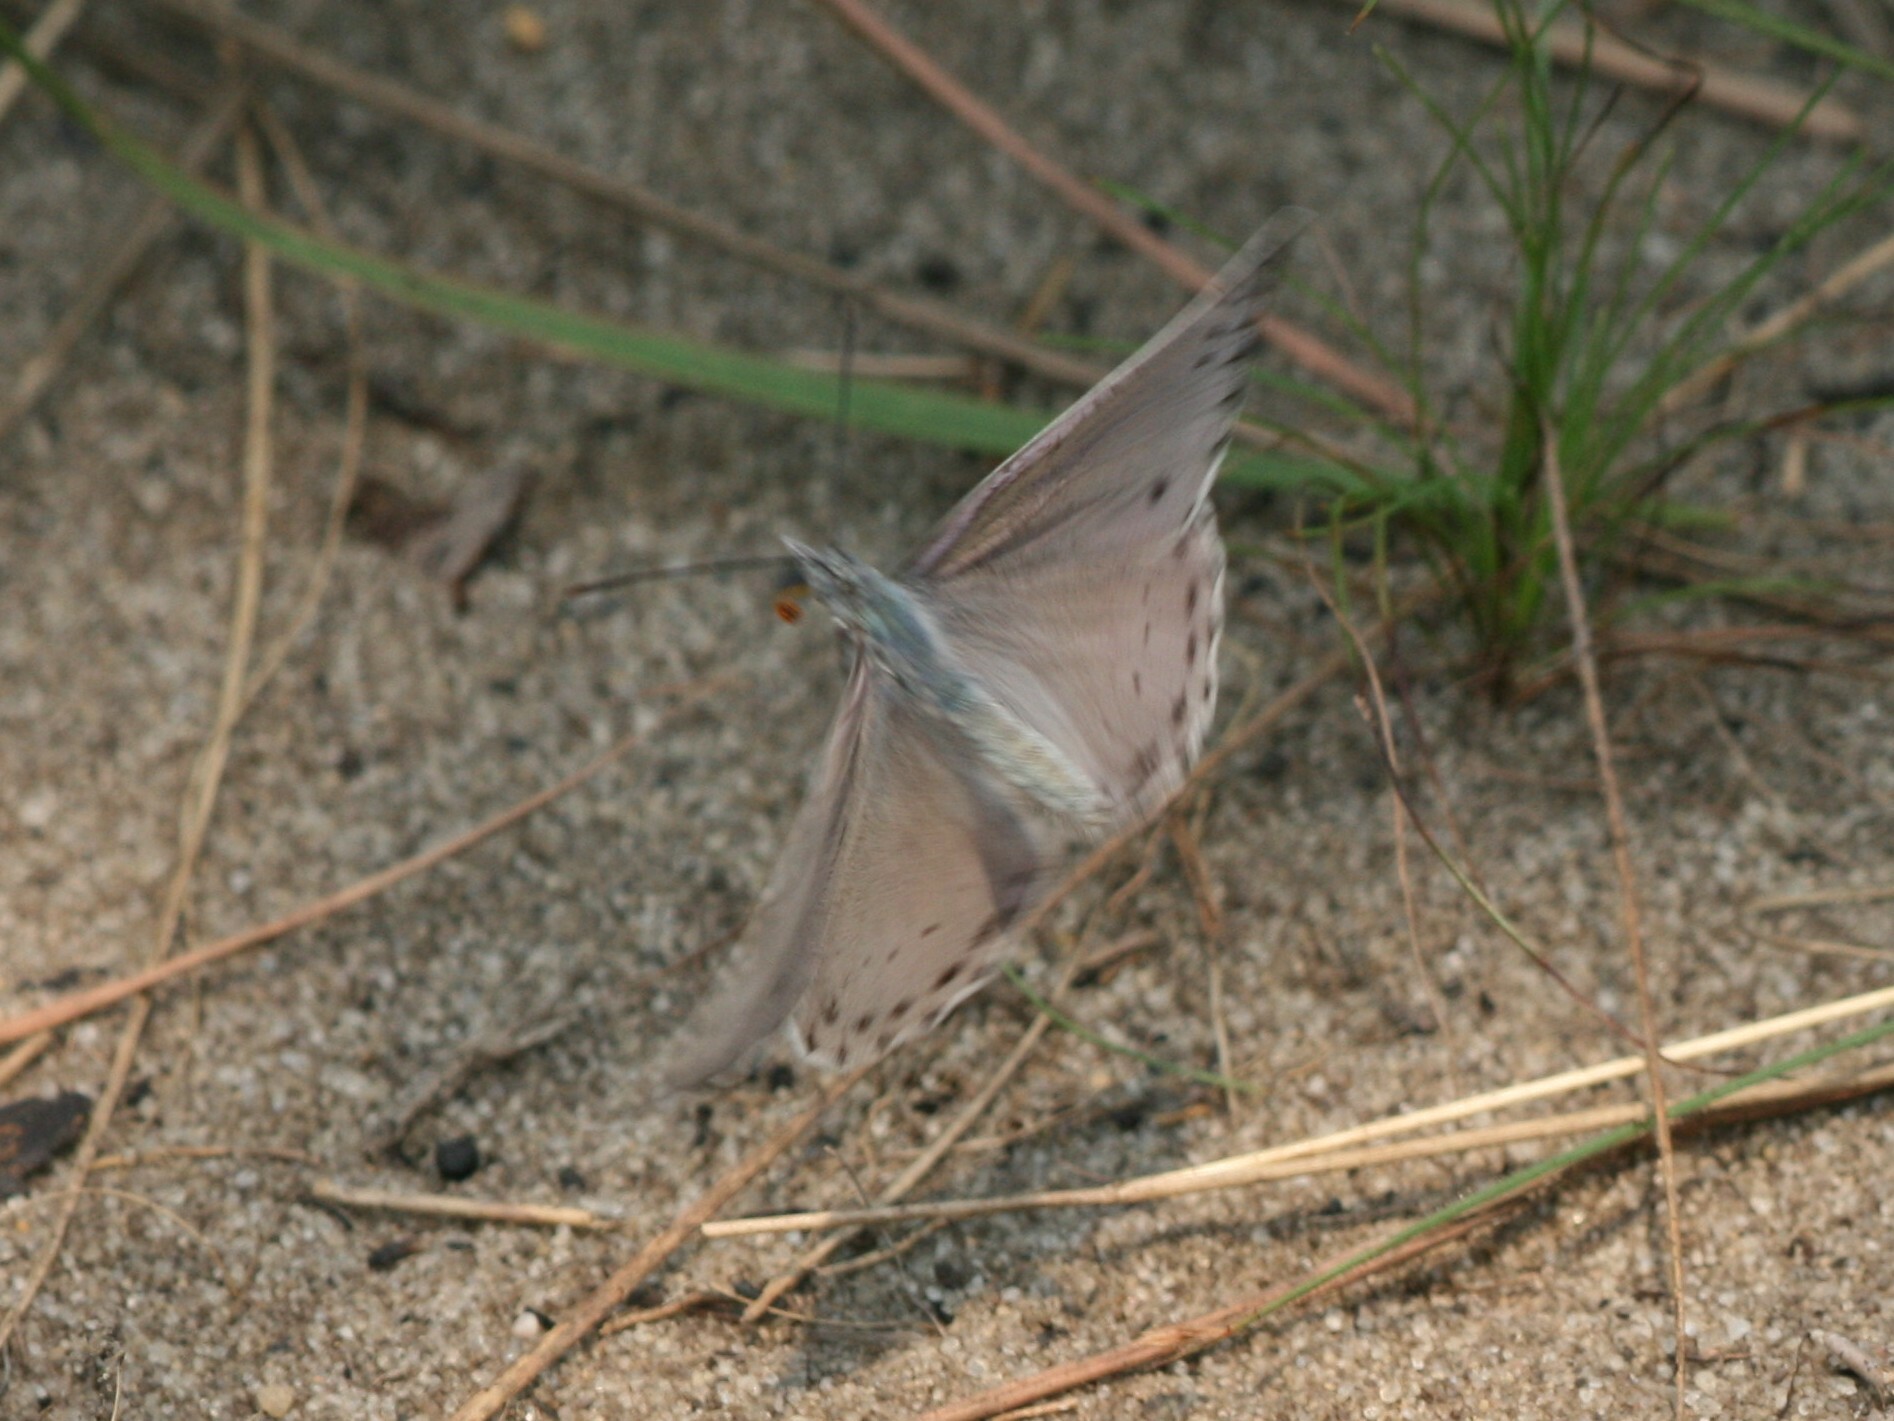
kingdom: Animalia
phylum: Arthropoda
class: Insecta
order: Lepidoptera
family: Nymphalidae
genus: Sevenia
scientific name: Sevenia
